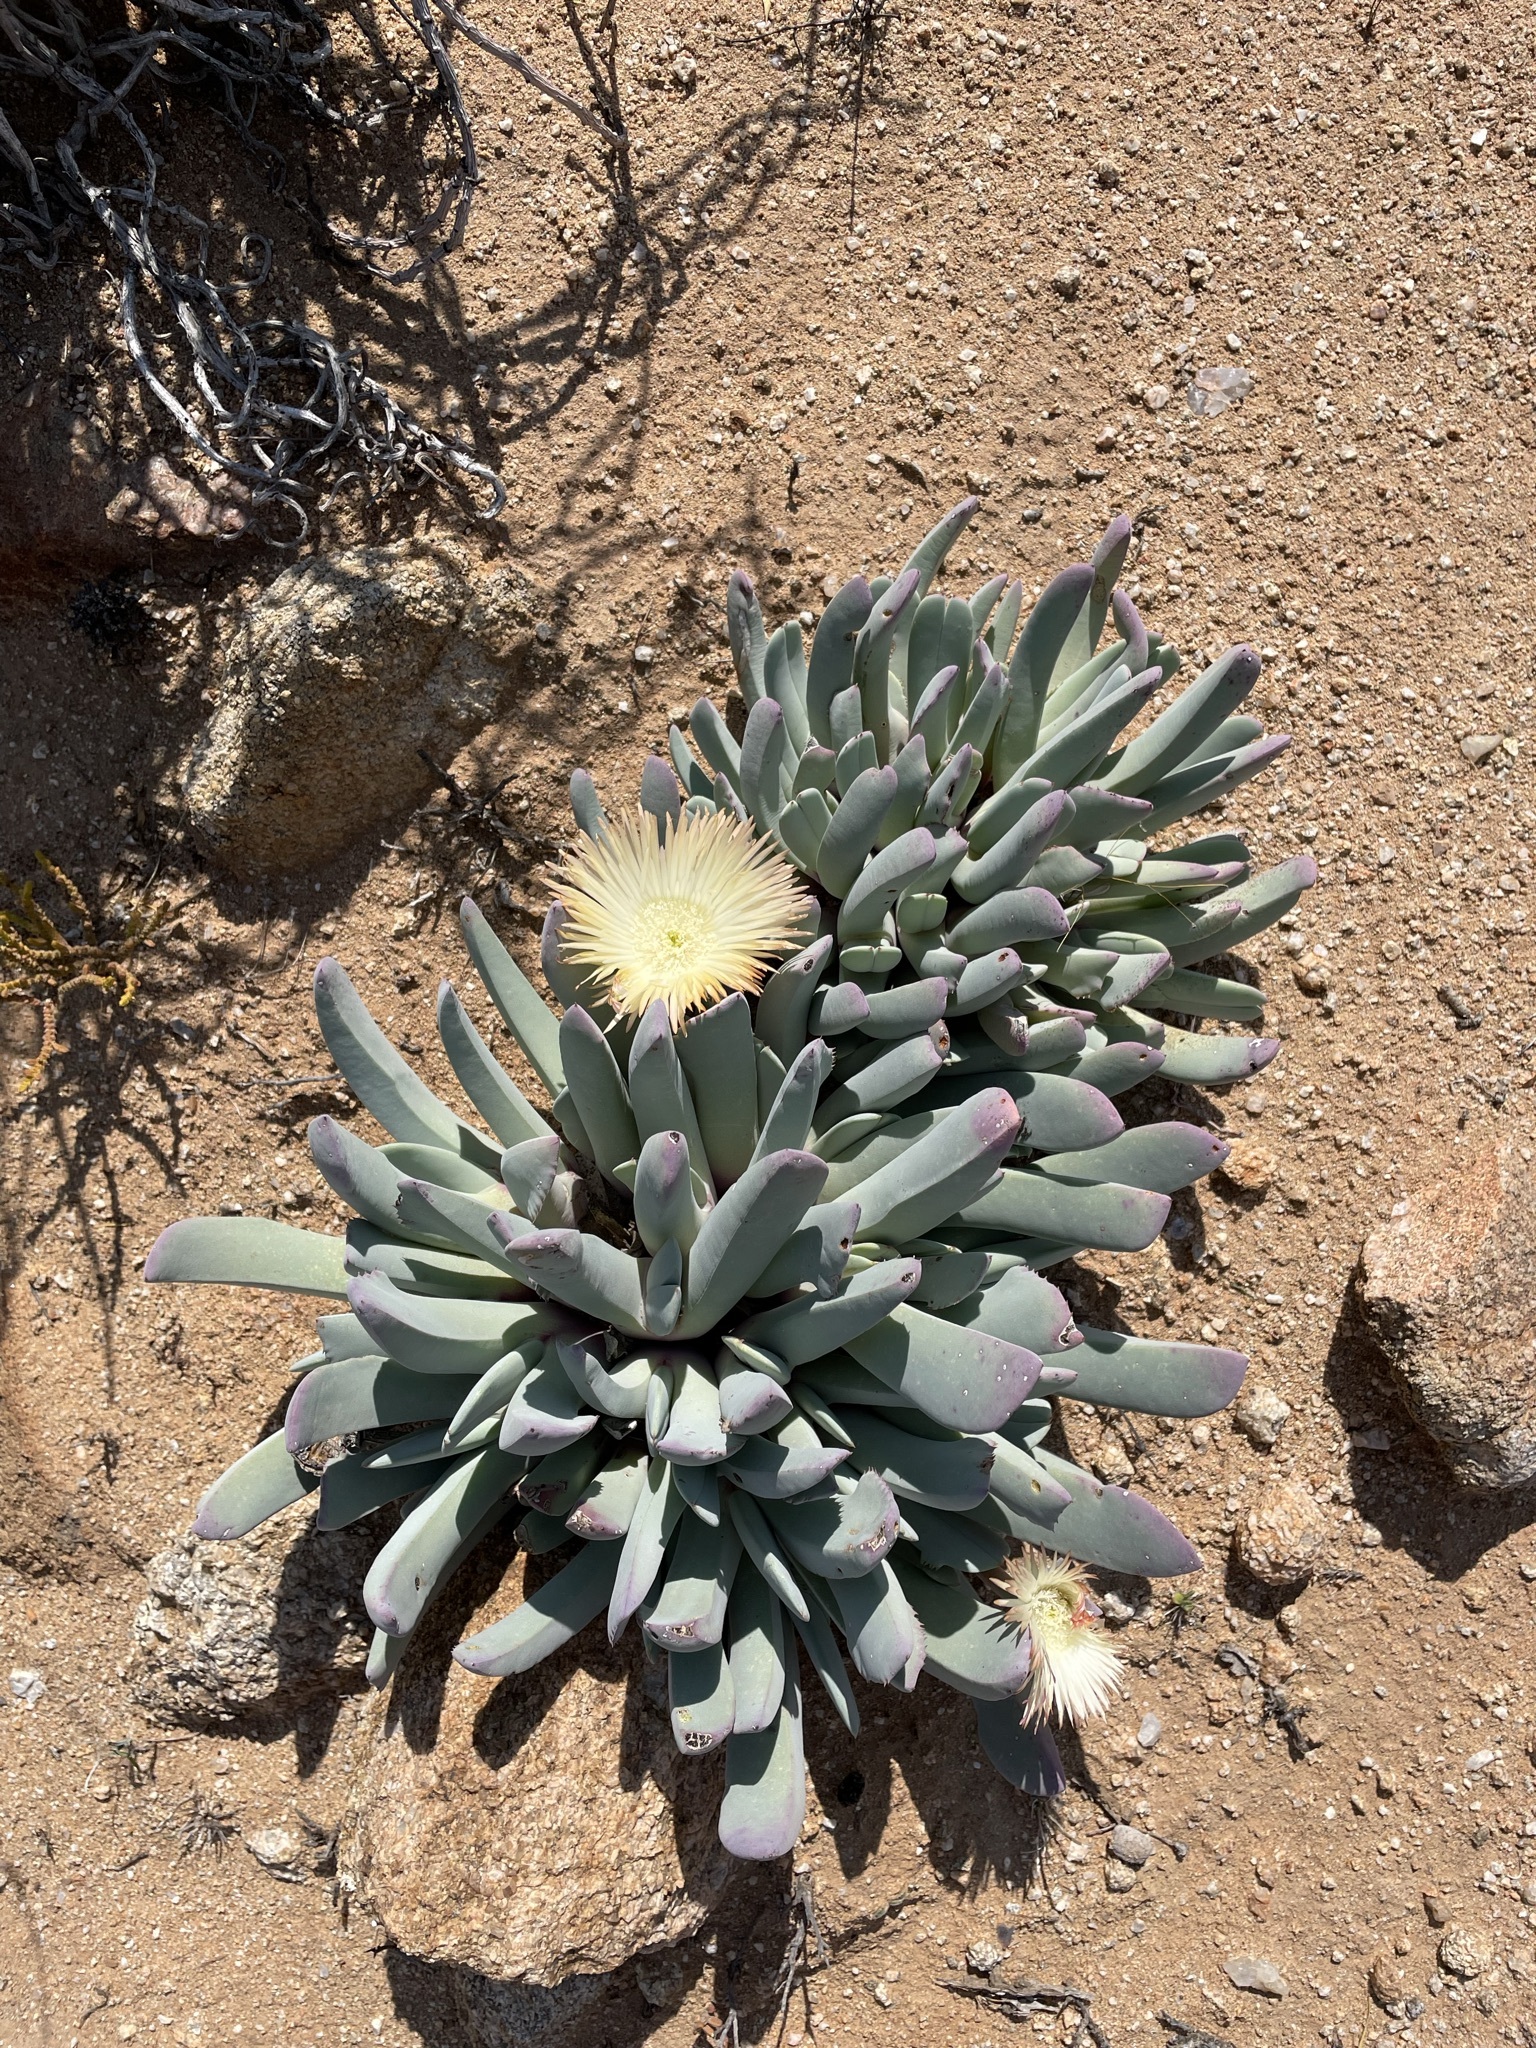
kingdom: Plantae
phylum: Tracheophyta
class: Magnoliopsida
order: Caryophyllales
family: Aizoaceae
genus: Cheiridopsis
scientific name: Cheiridopsis denticulata
